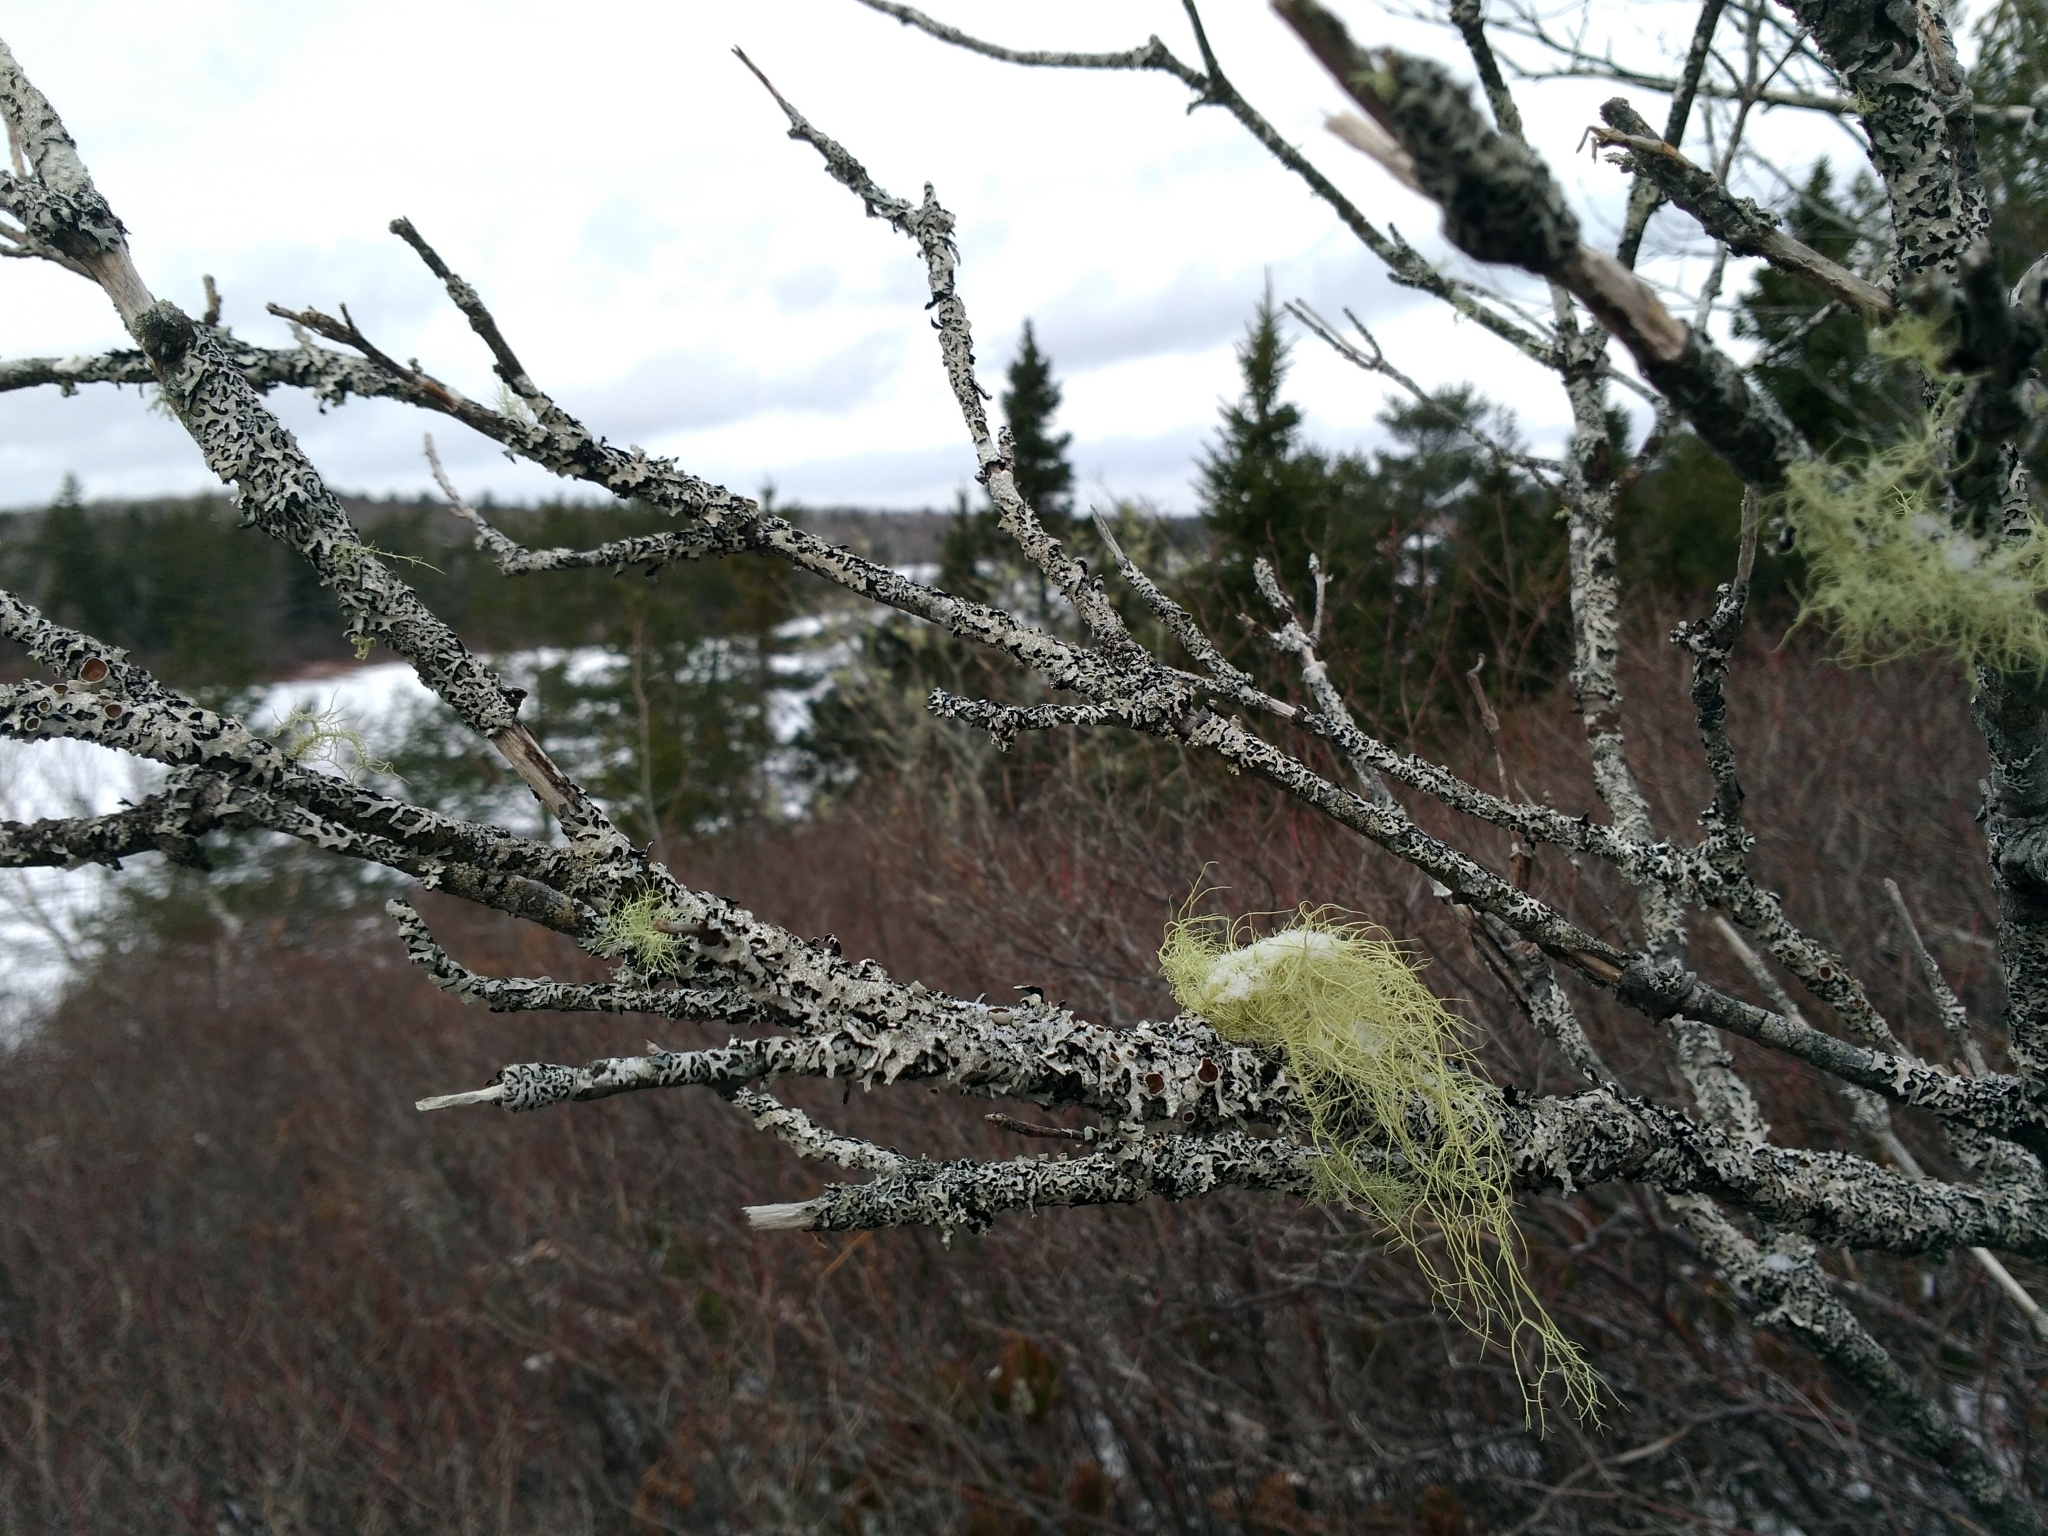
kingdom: Fungi
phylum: Ascomycota
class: Lecanoromycetes
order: Lecanorales
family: Parmeliaceae
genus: Parmelia
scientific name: Parmelia squarrosa
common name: Bottle brush shield lichen
